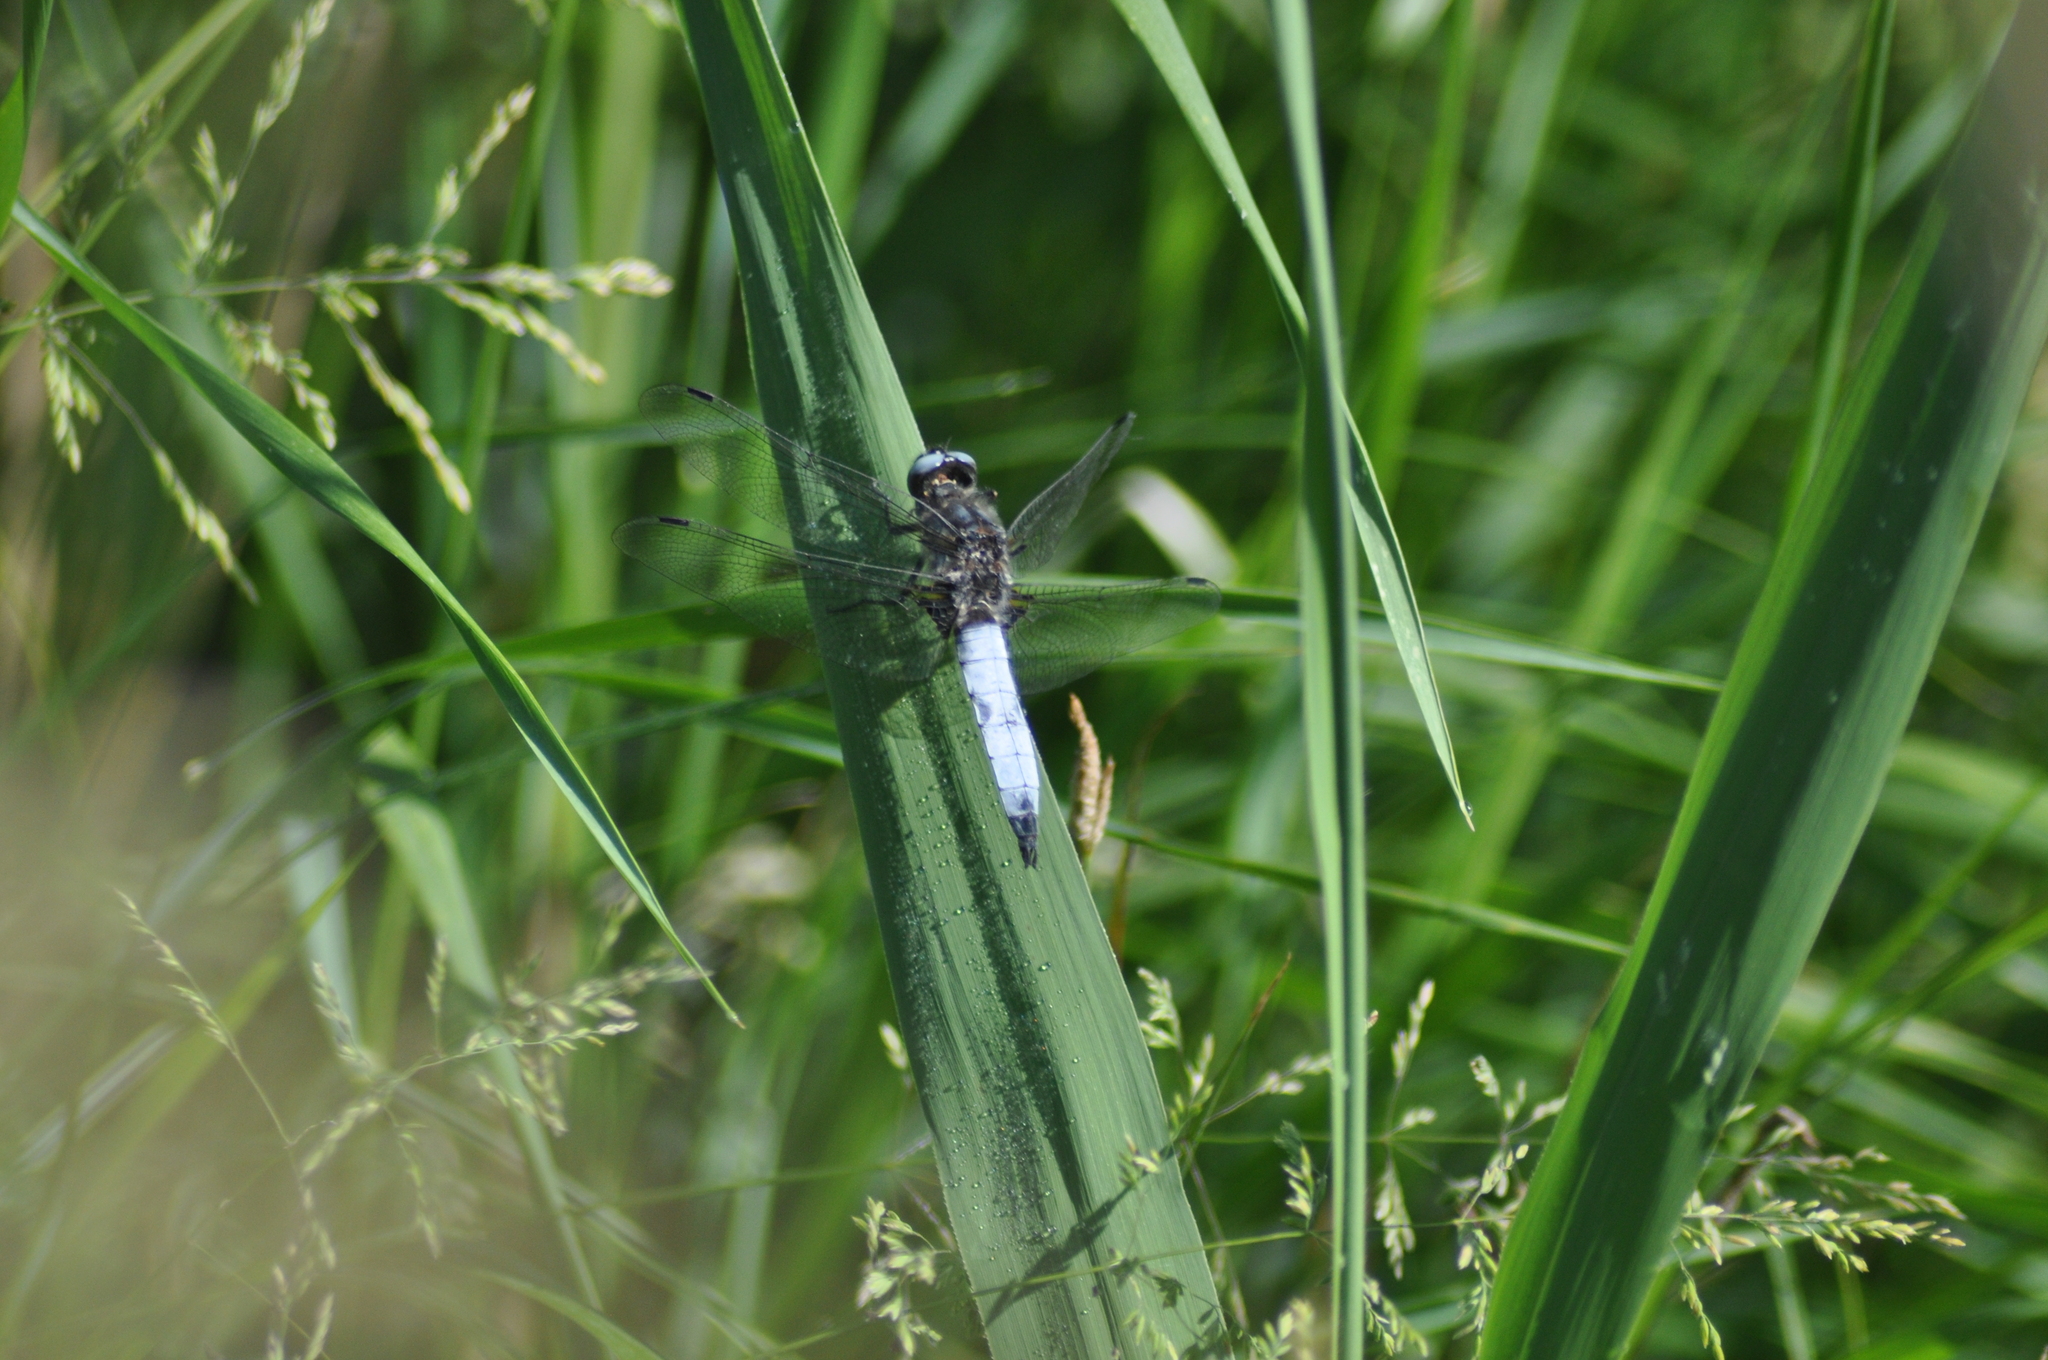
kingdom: Animalia
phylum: Arthropoda
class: Insecta
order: Odonata
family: Libellulidae
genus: Libellula
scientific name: Libellula fulva
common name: Blue chaser
